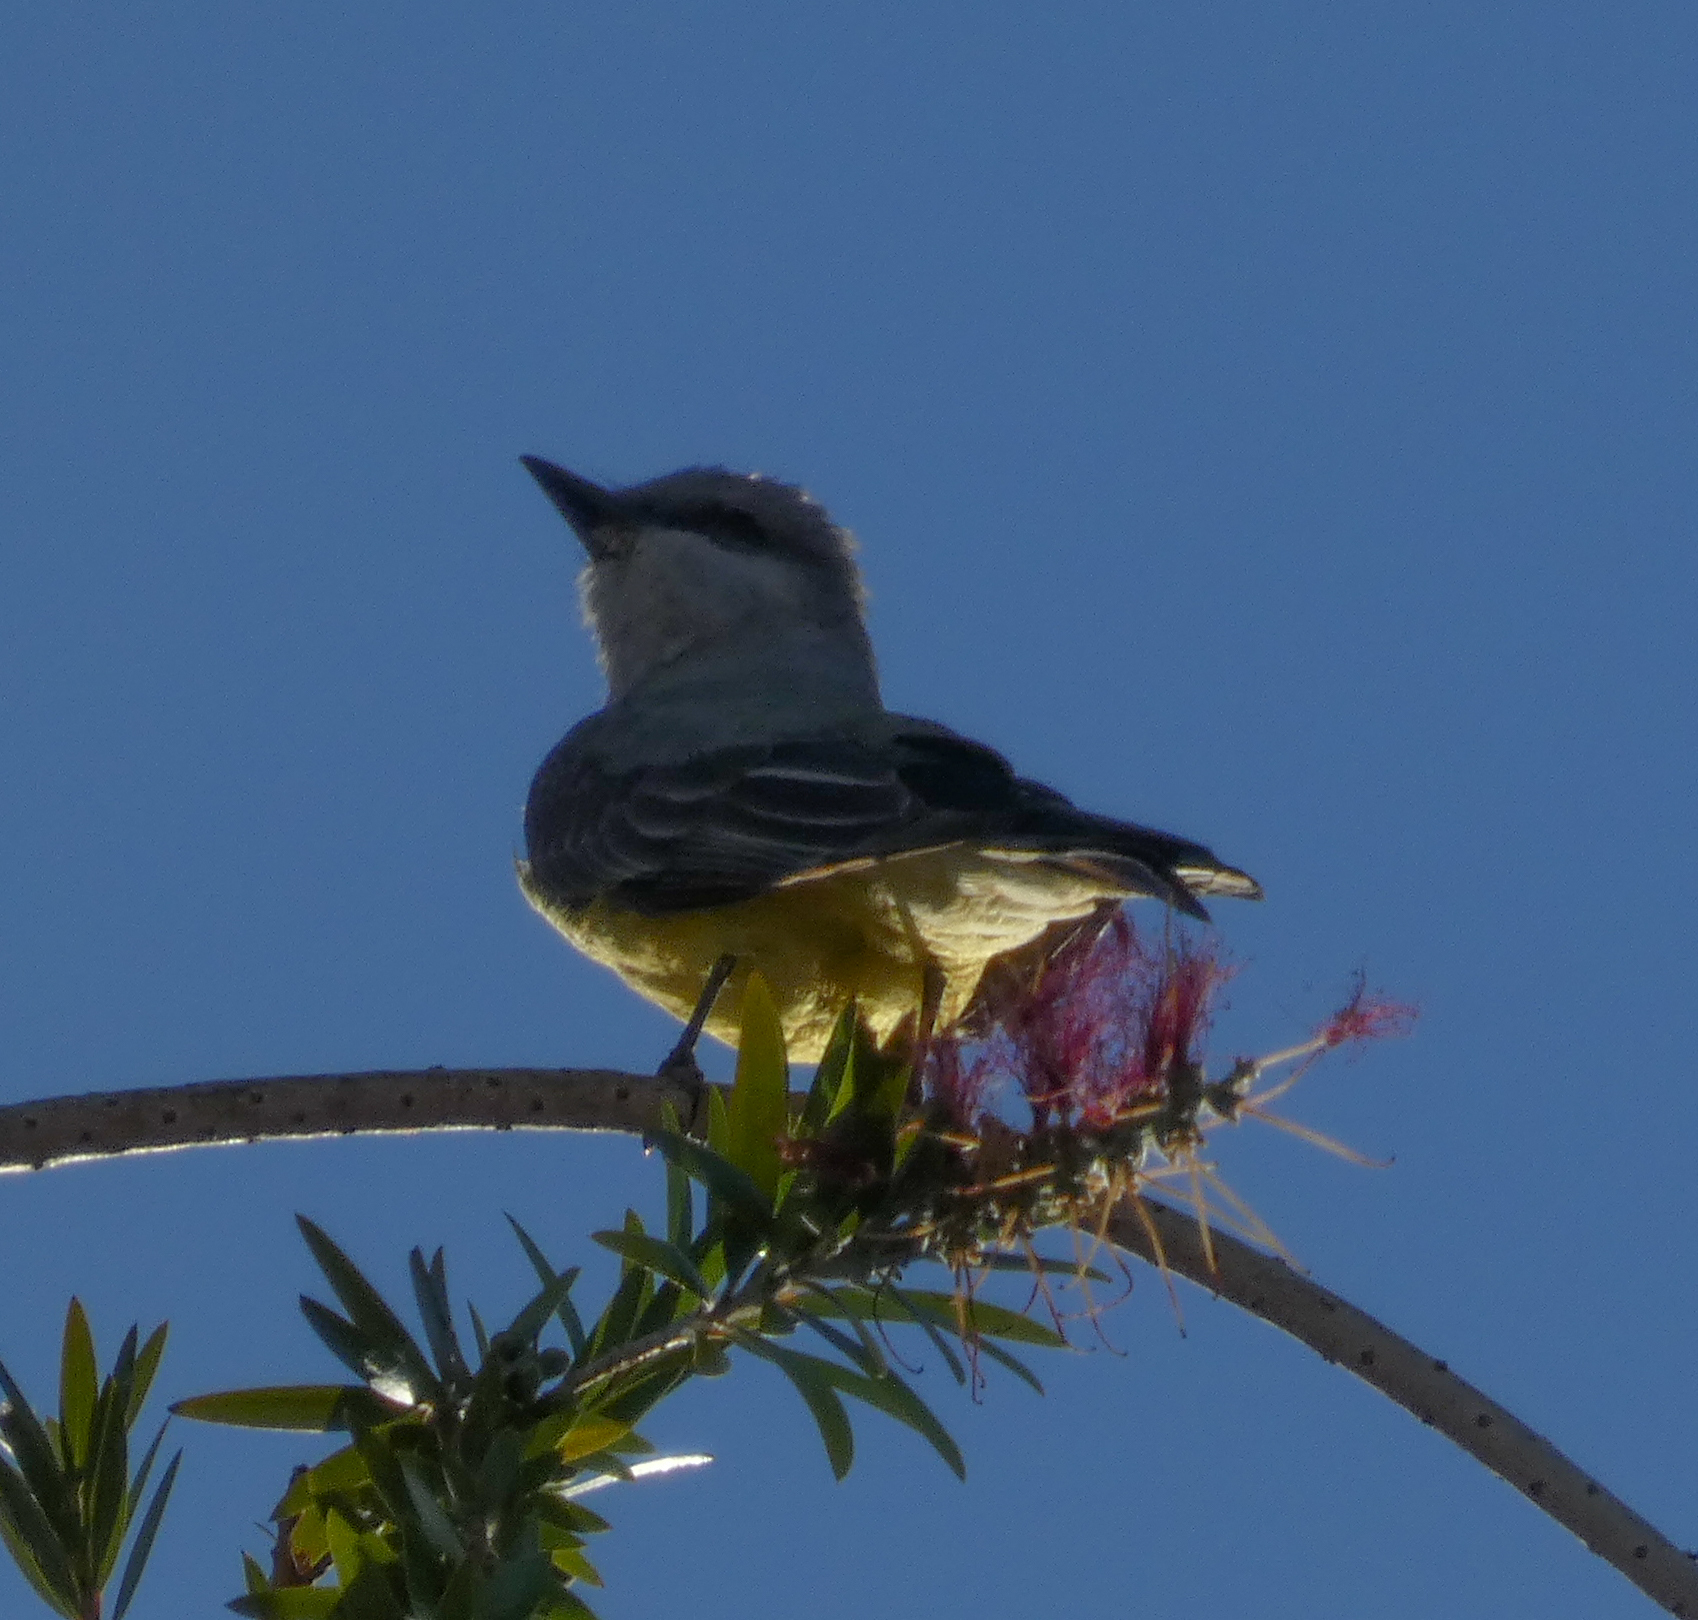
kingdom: Animalia
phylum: Chordata
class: Aves
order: Passeriformes
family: Tyrannidae
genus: Tyrannus
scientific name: Tyrannus verticalis
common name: Western kingbird
